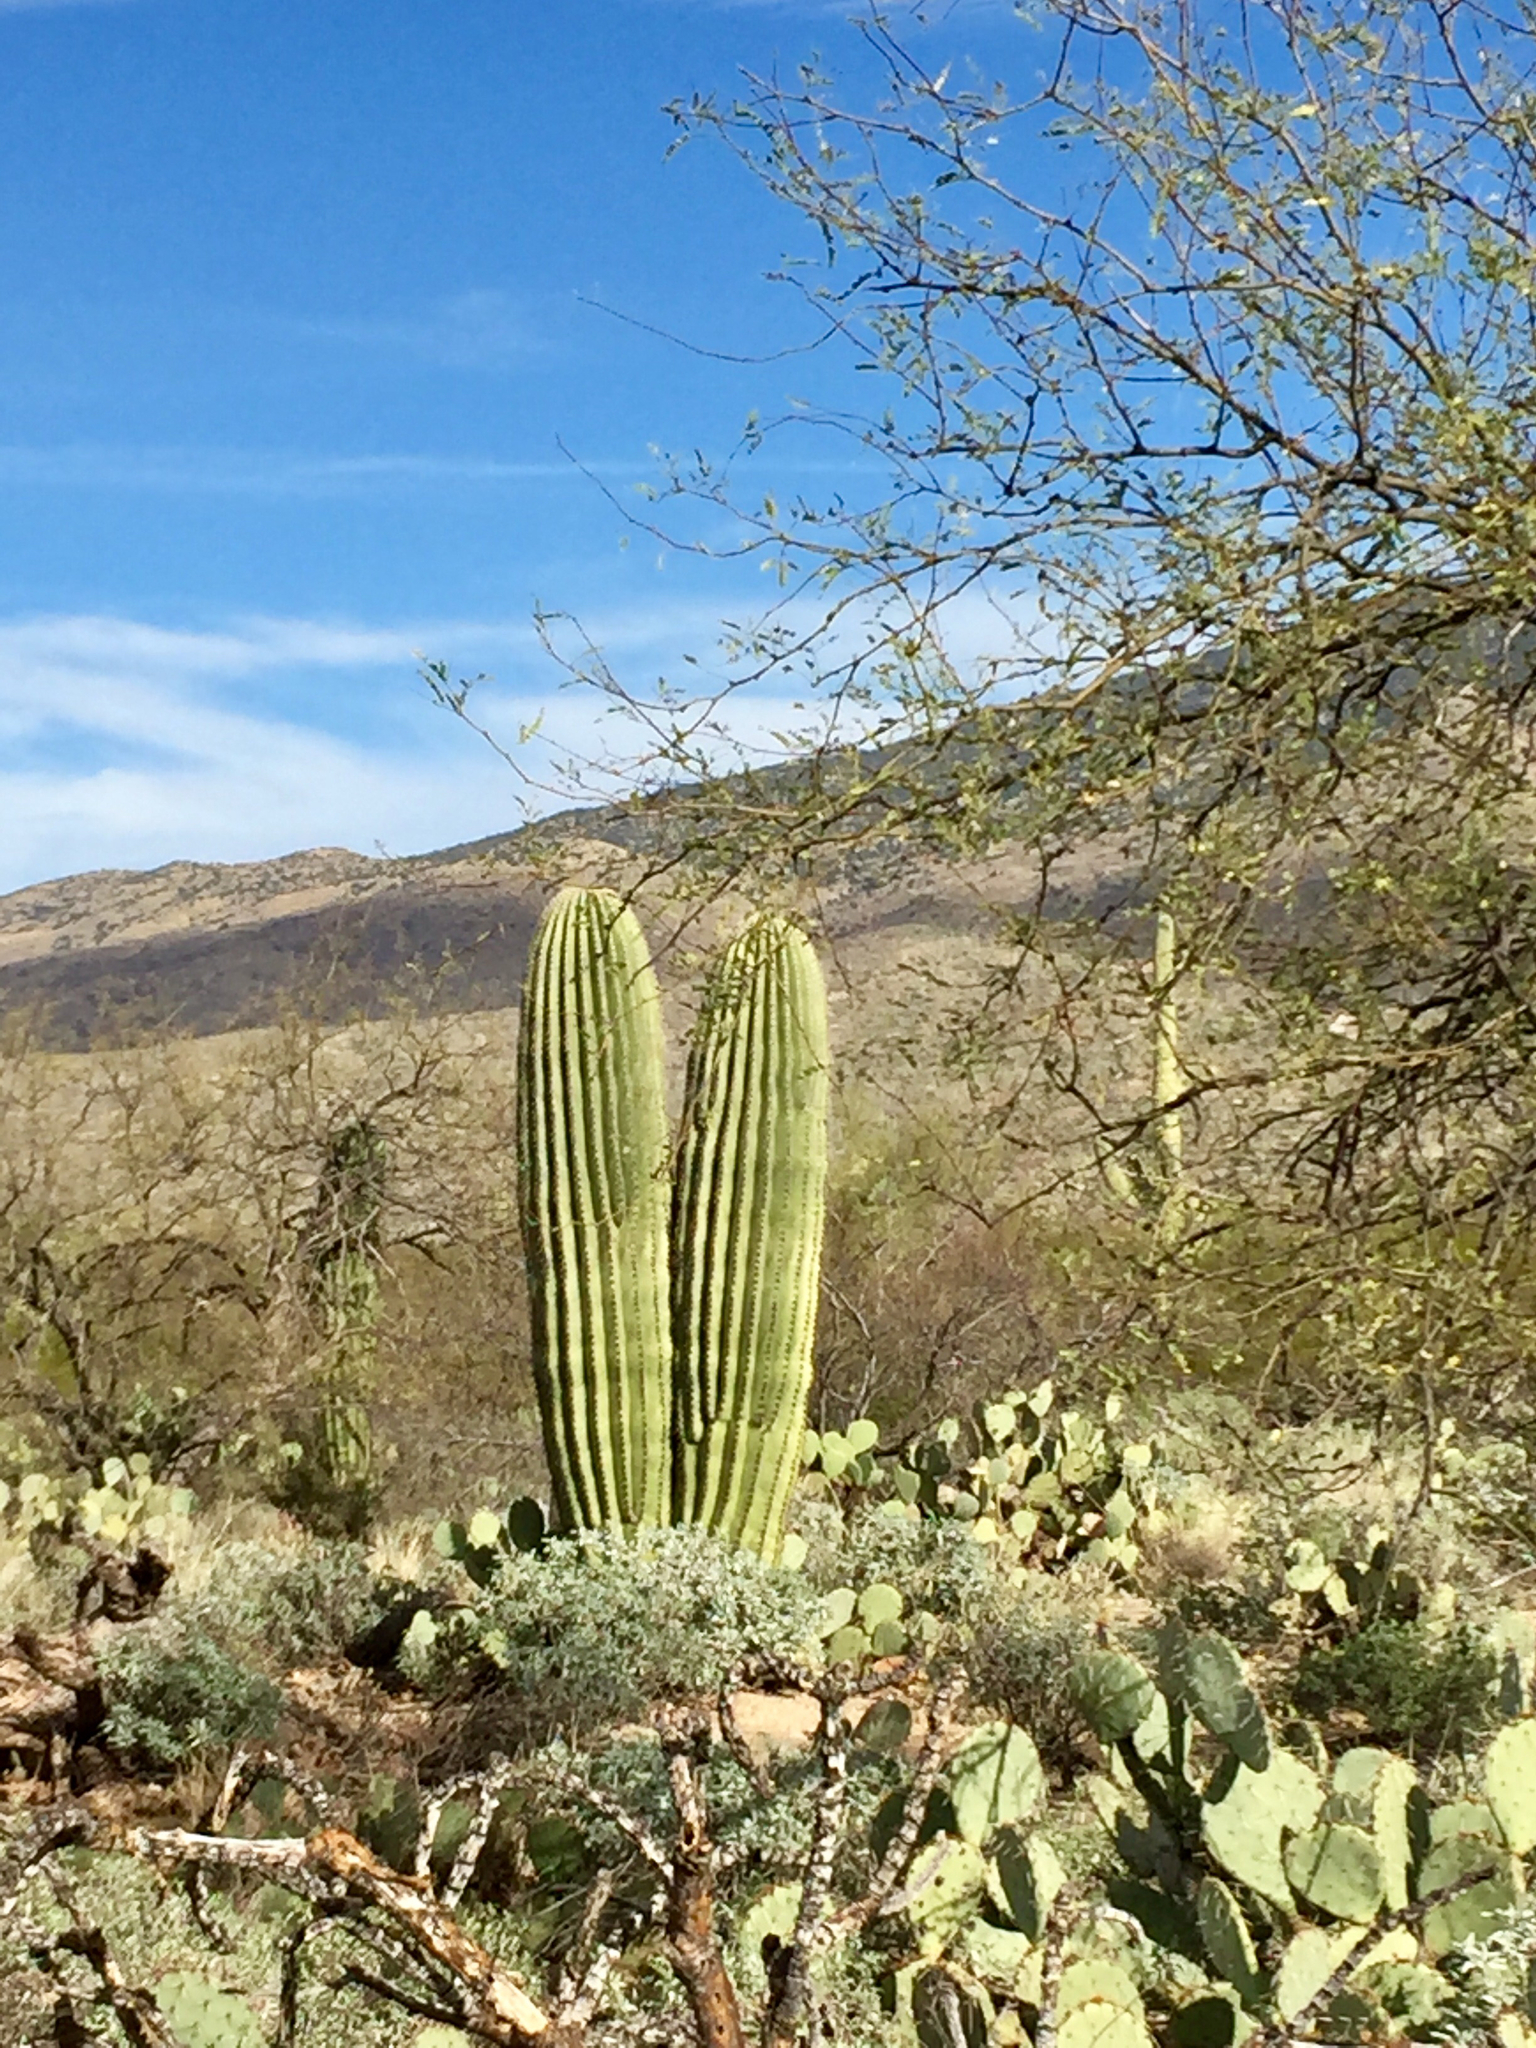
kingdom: Plantae
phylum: Tracheophyta
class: Magnoliopsida
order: Caryophyllales
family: Cactaceae
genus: Carnegiea
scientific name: Carnegiea gigantea
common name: Saguaro
